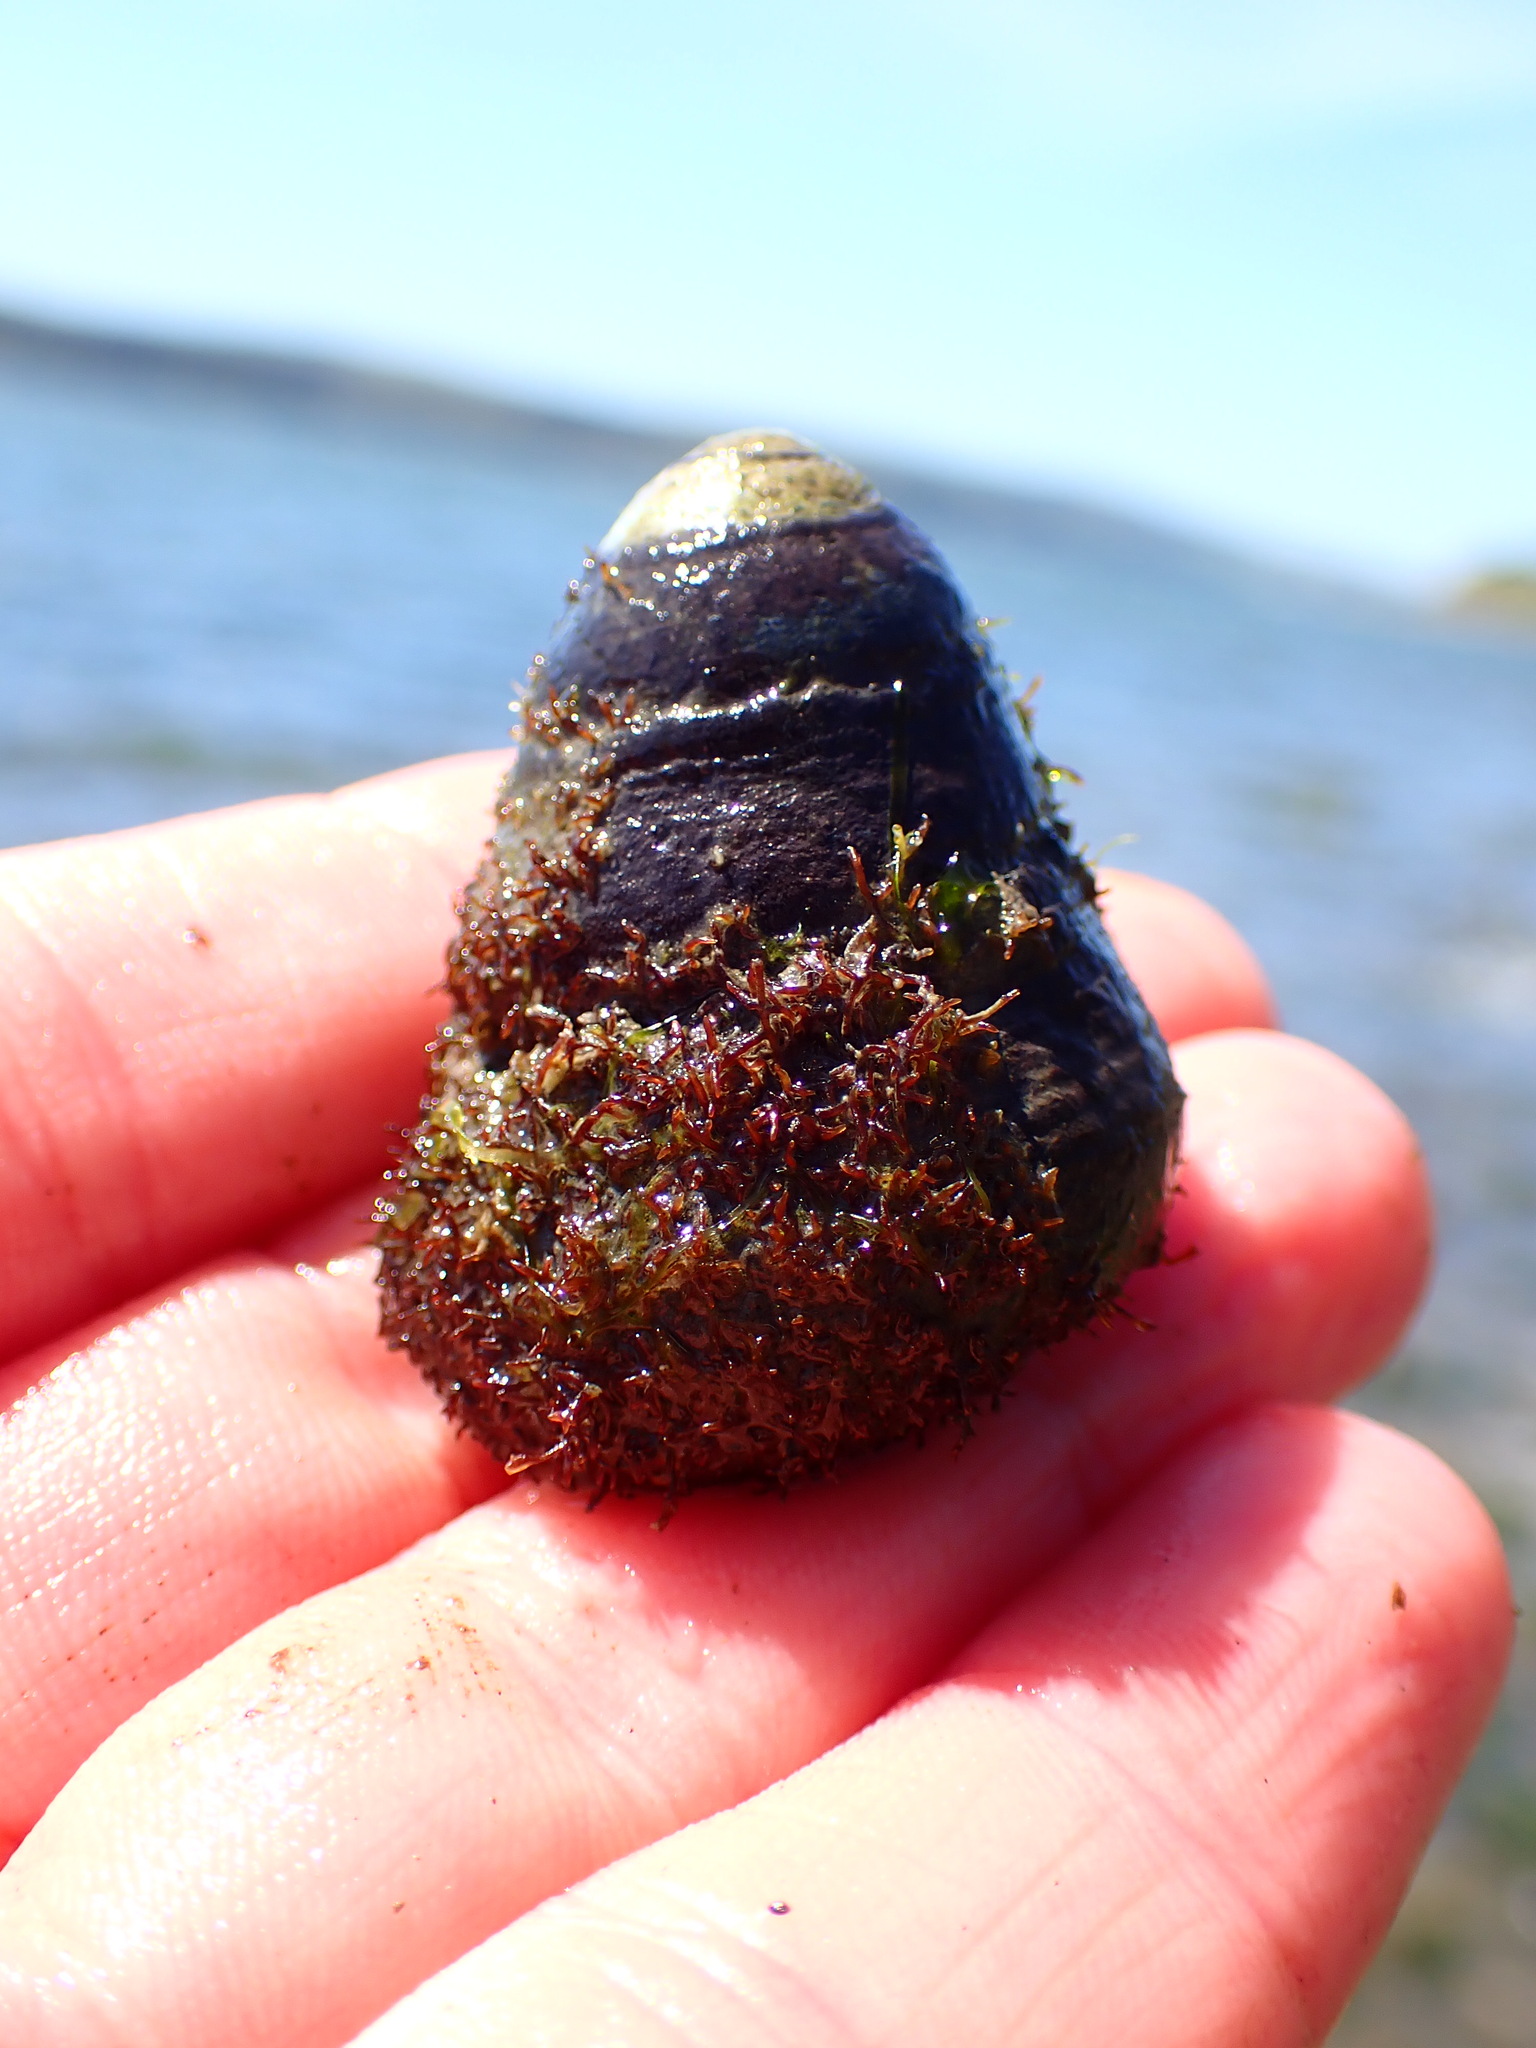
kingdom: Animalia
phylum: Mollusca
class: Gastropoda
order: Trochida
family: Tegulidae
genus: Tegula
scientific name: Tegula funebralis
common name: Black tegula
